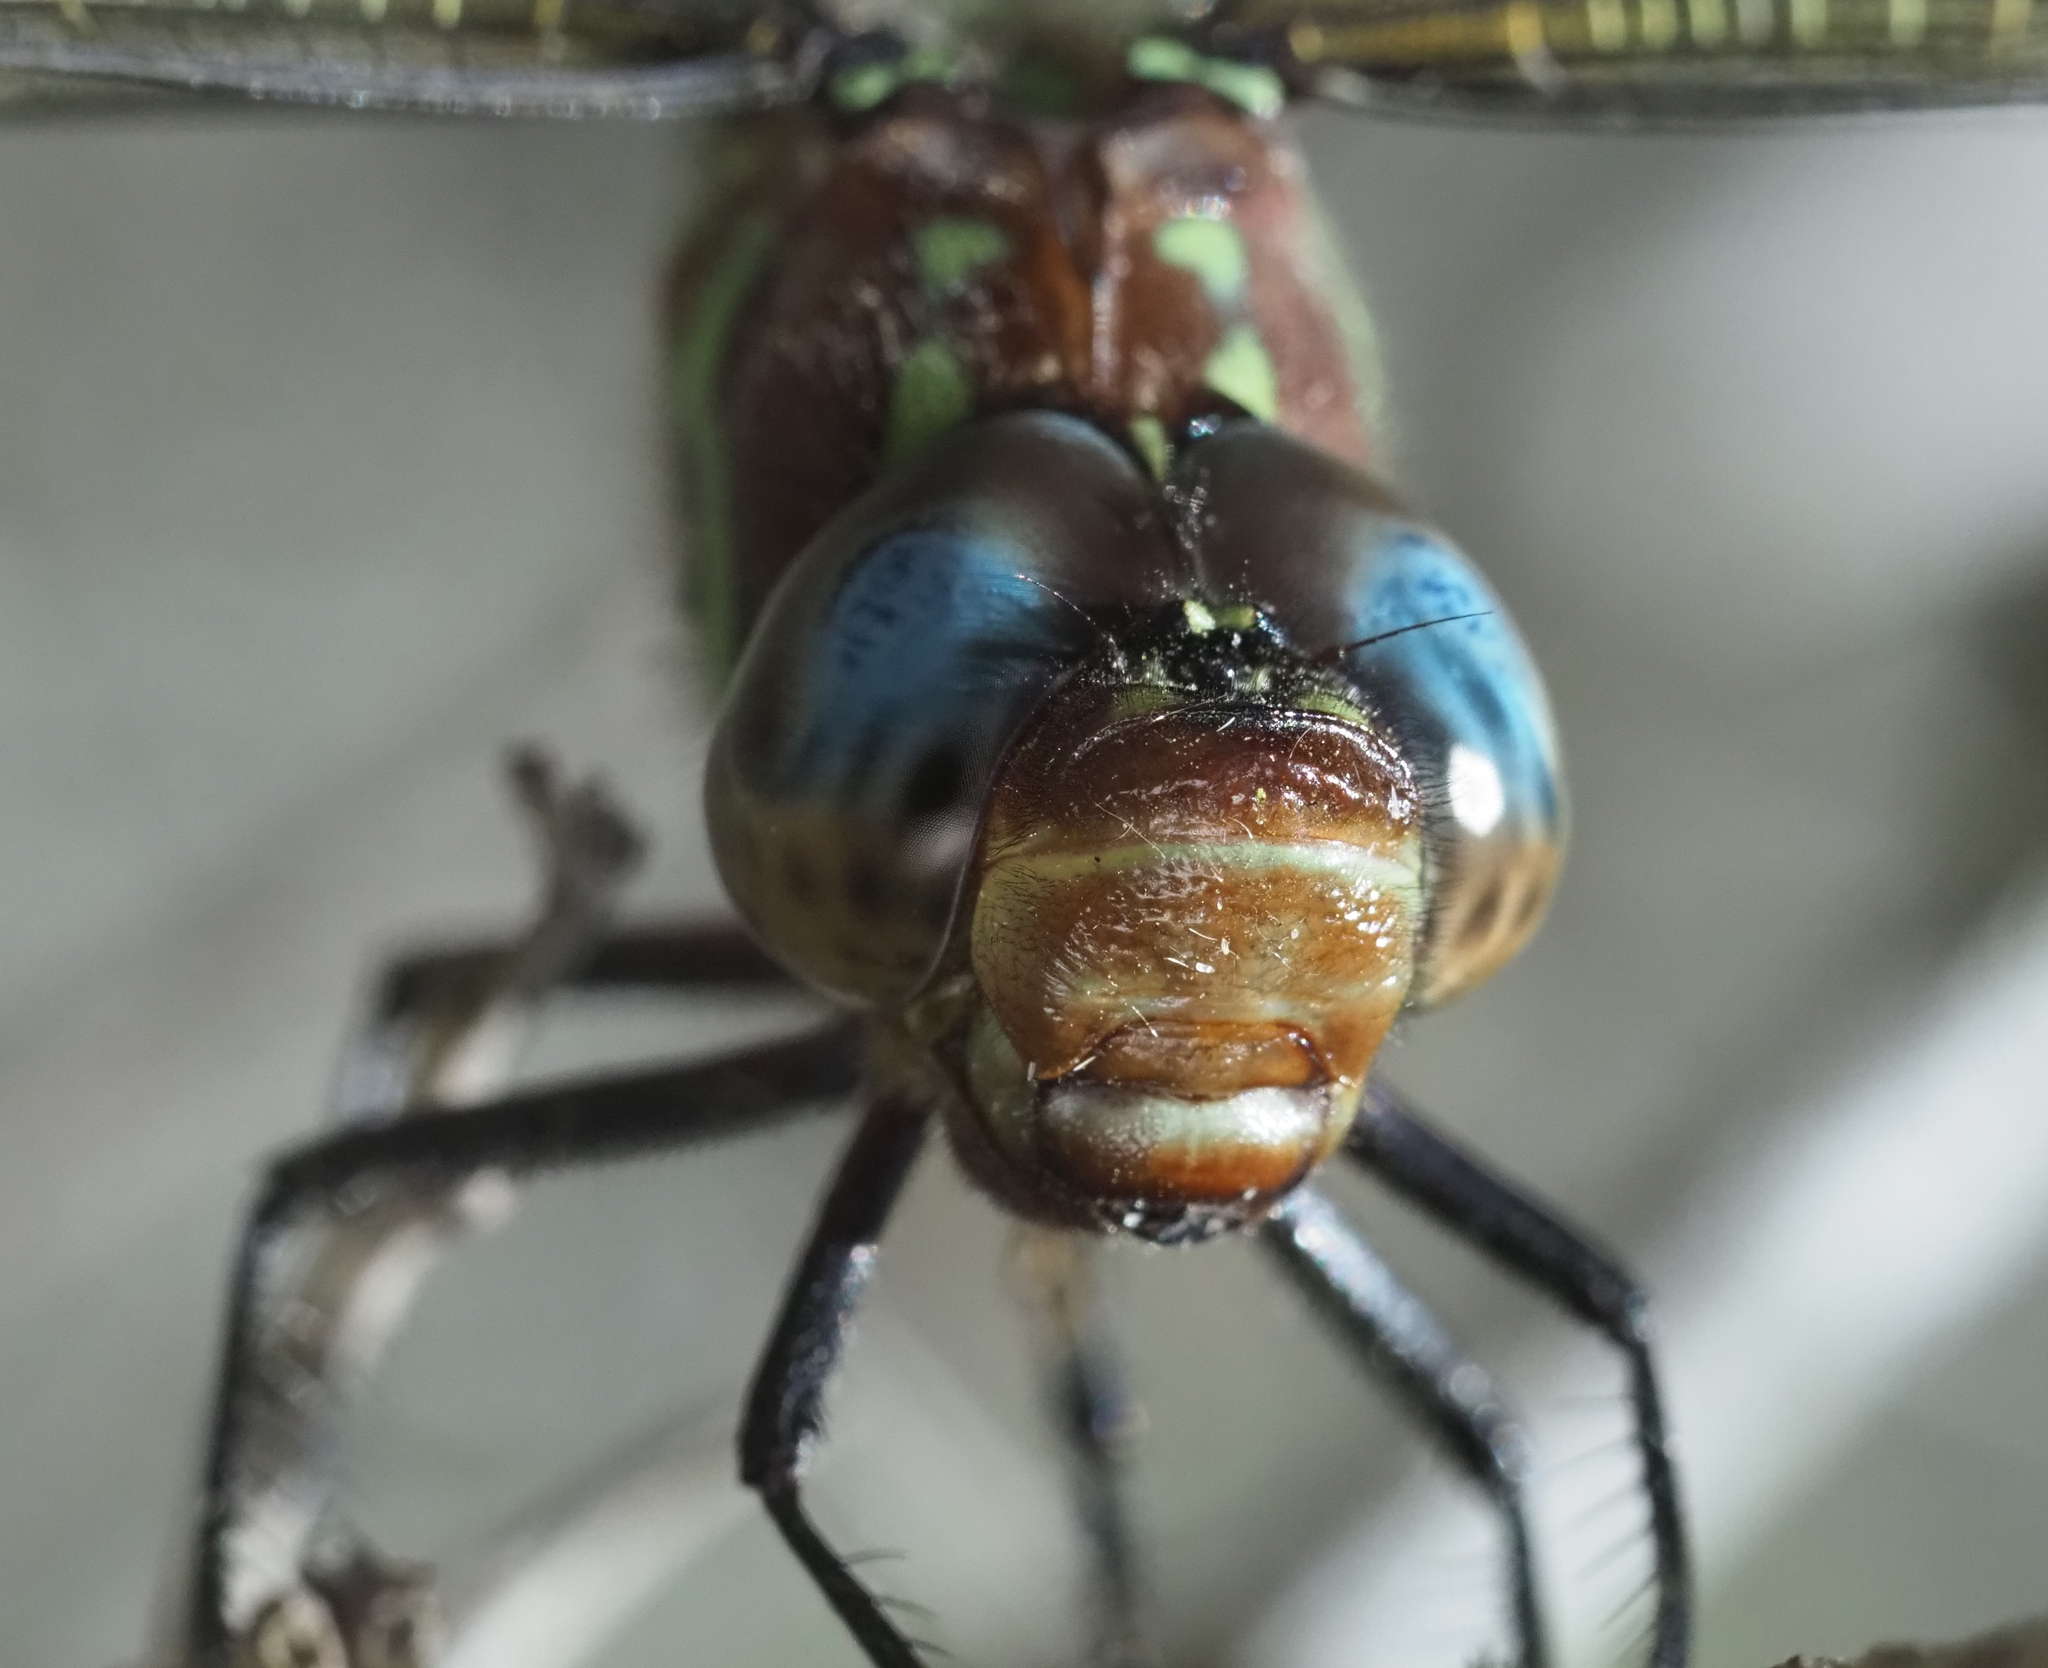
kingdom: Animalia
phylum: Arthropoda
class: Insecta
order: Odonata
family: Aeshnidae
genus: Epiaeschna
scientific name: Epiaeschna heros
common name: Swamp darner
